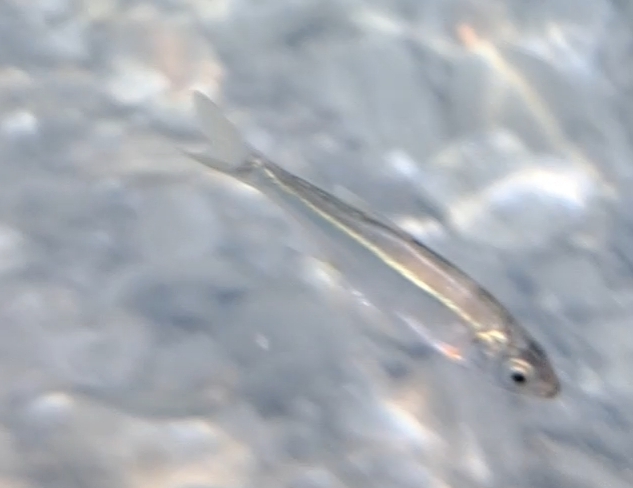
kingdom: Animalia
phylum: Chordata
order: Cypriniformes
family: Cyprinidae
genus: Alburnoides
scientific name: Alburnoides ohridanus
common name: Ohrid spirlin
